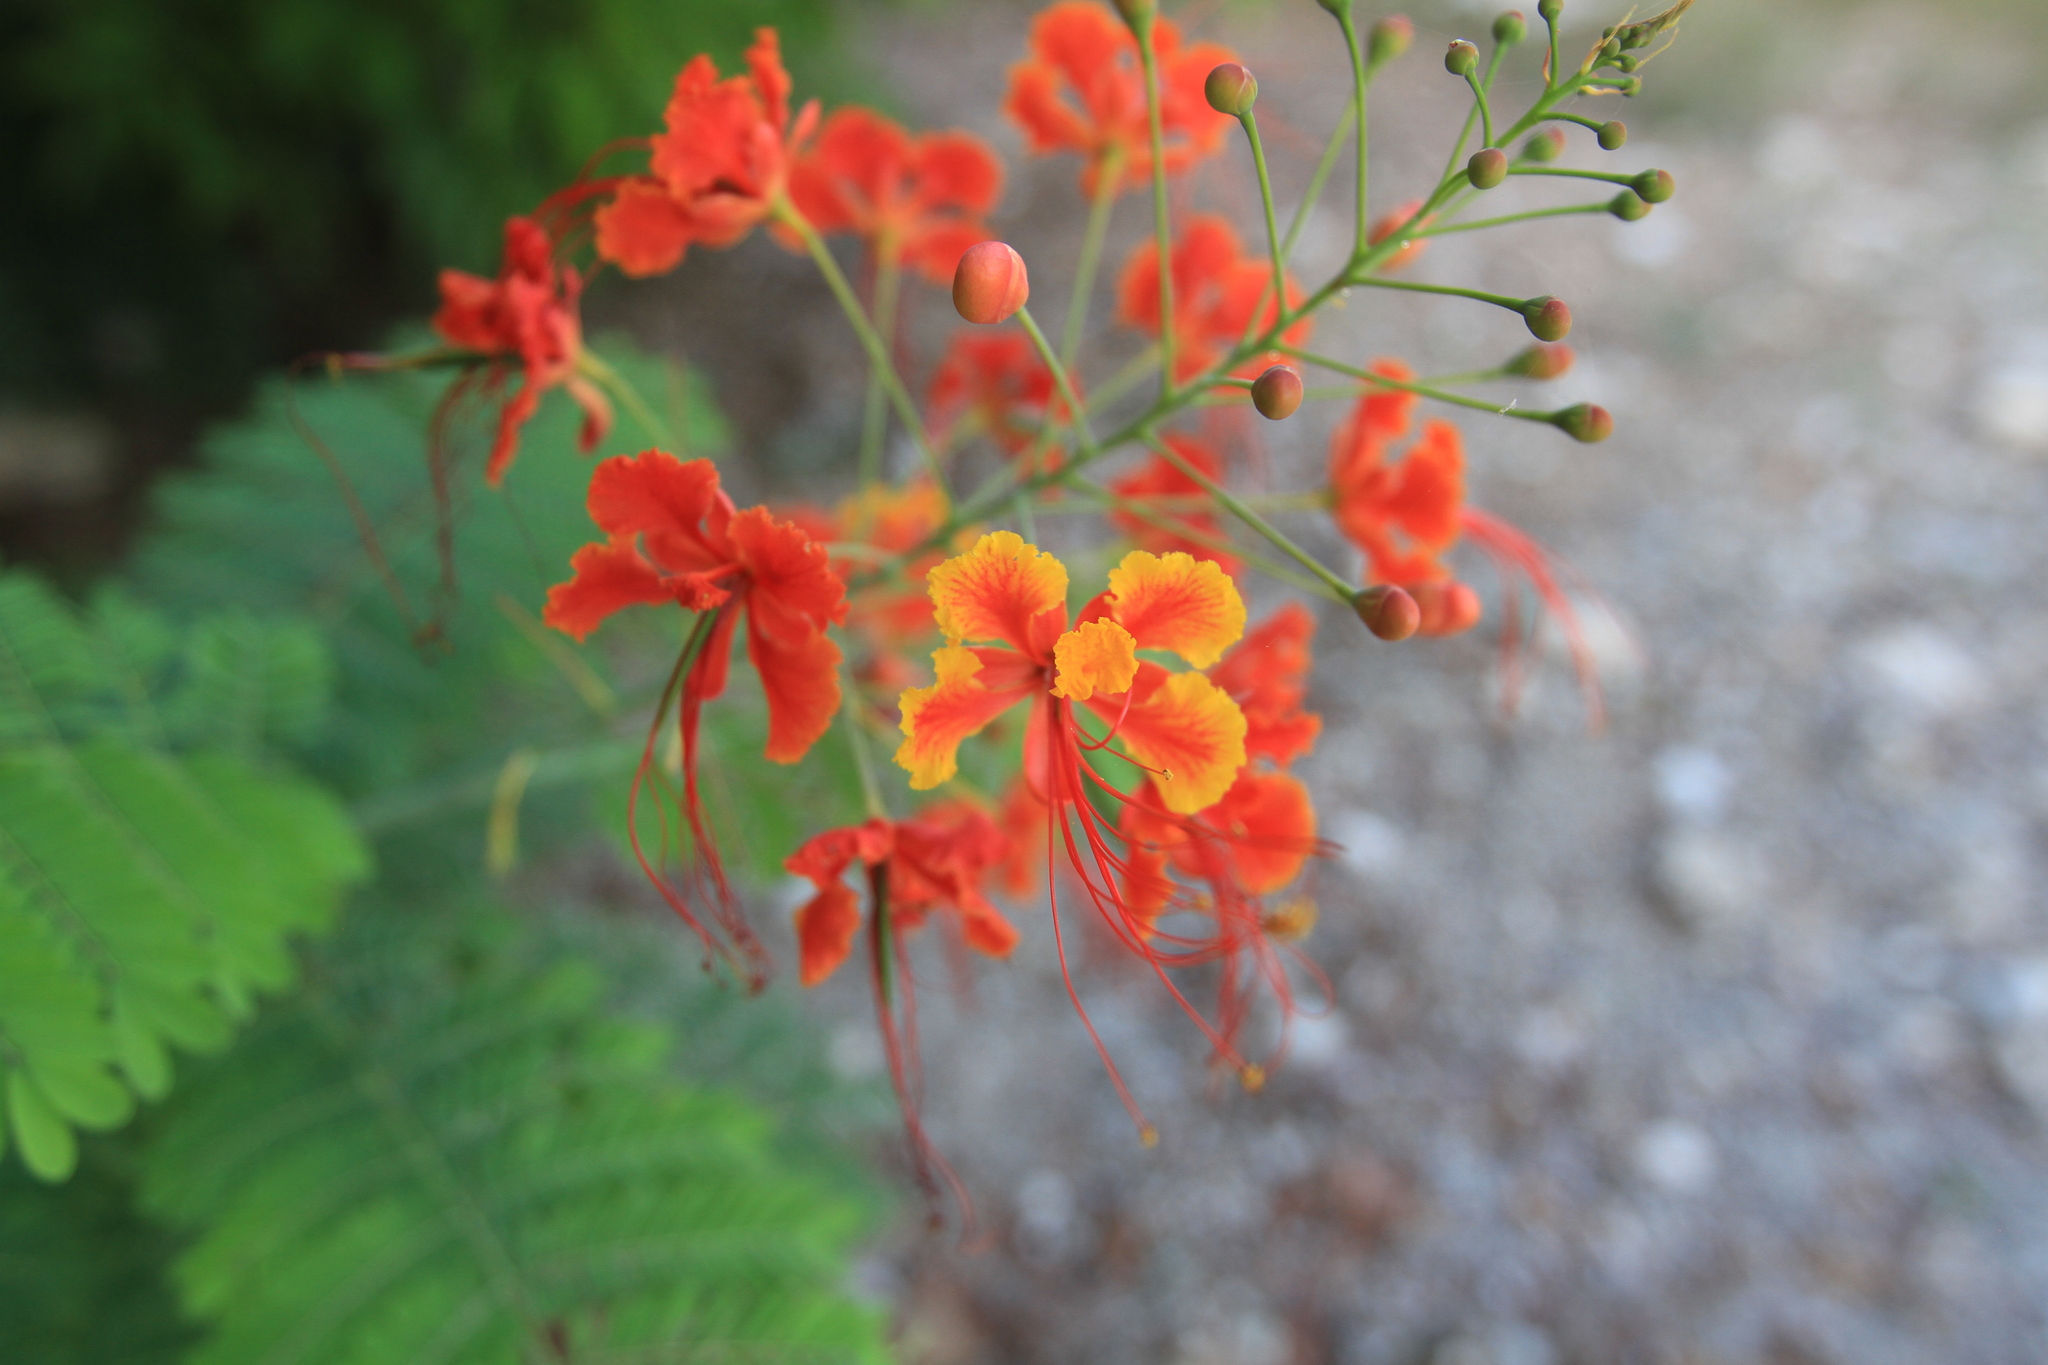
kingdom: Plantae
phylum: Tracheophyta
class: Magnoliopsida
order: Fabales
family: Fabaceae
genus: Caesalpinia
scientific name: Caesalpinia pulcherrima
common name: Pride-of-barbados
